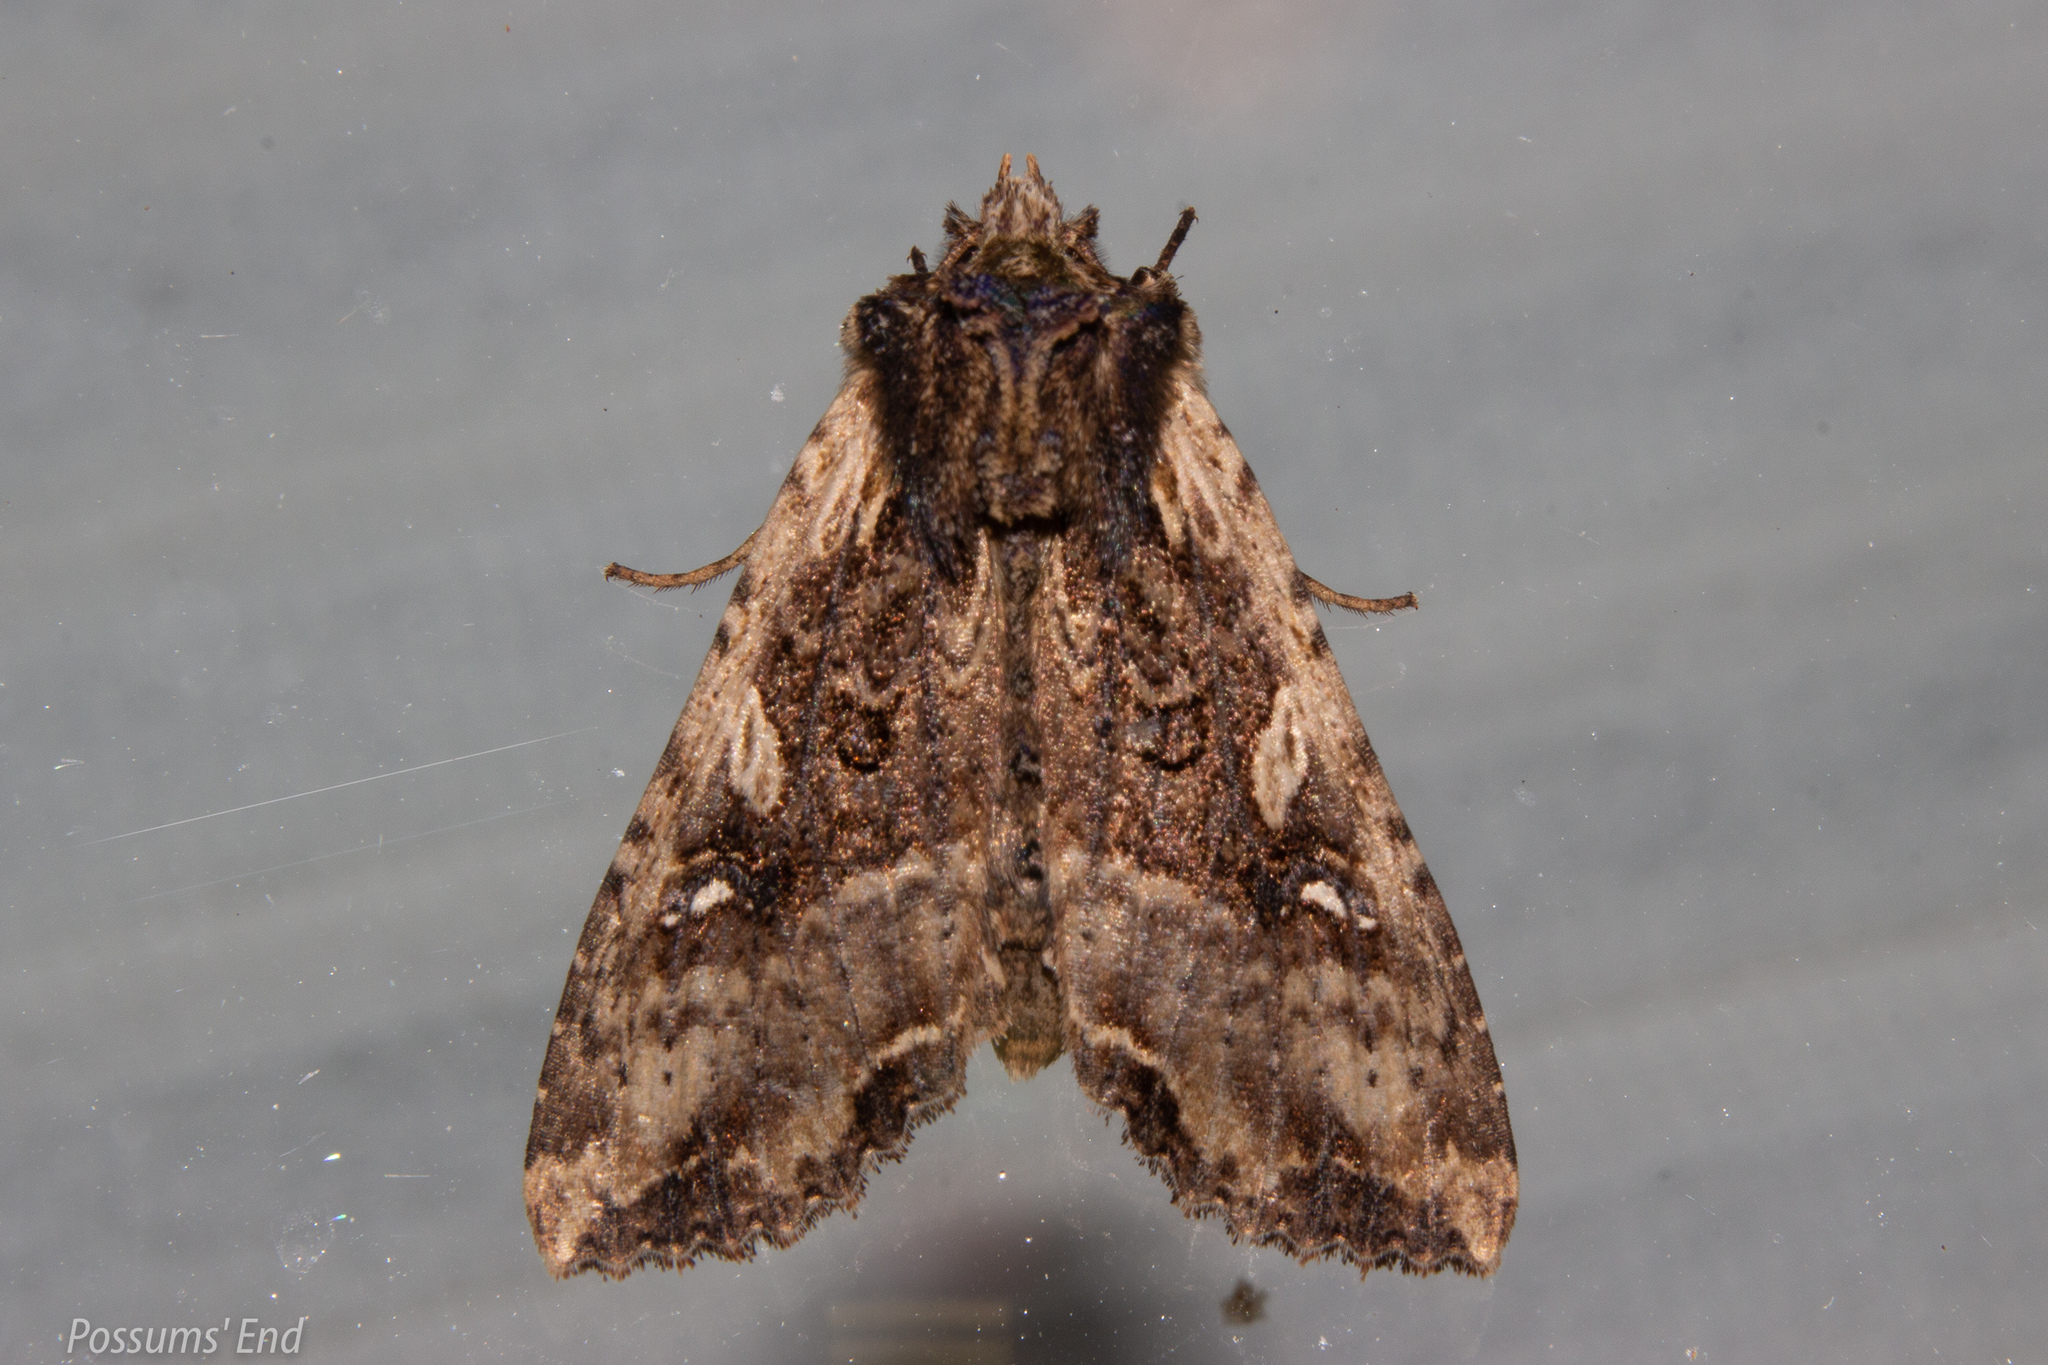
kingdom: Animalia
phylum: Arthropoda
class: Insecta
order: Lepidoptera
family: Noctuidae
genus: Meterana
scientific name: Meterana stipata
